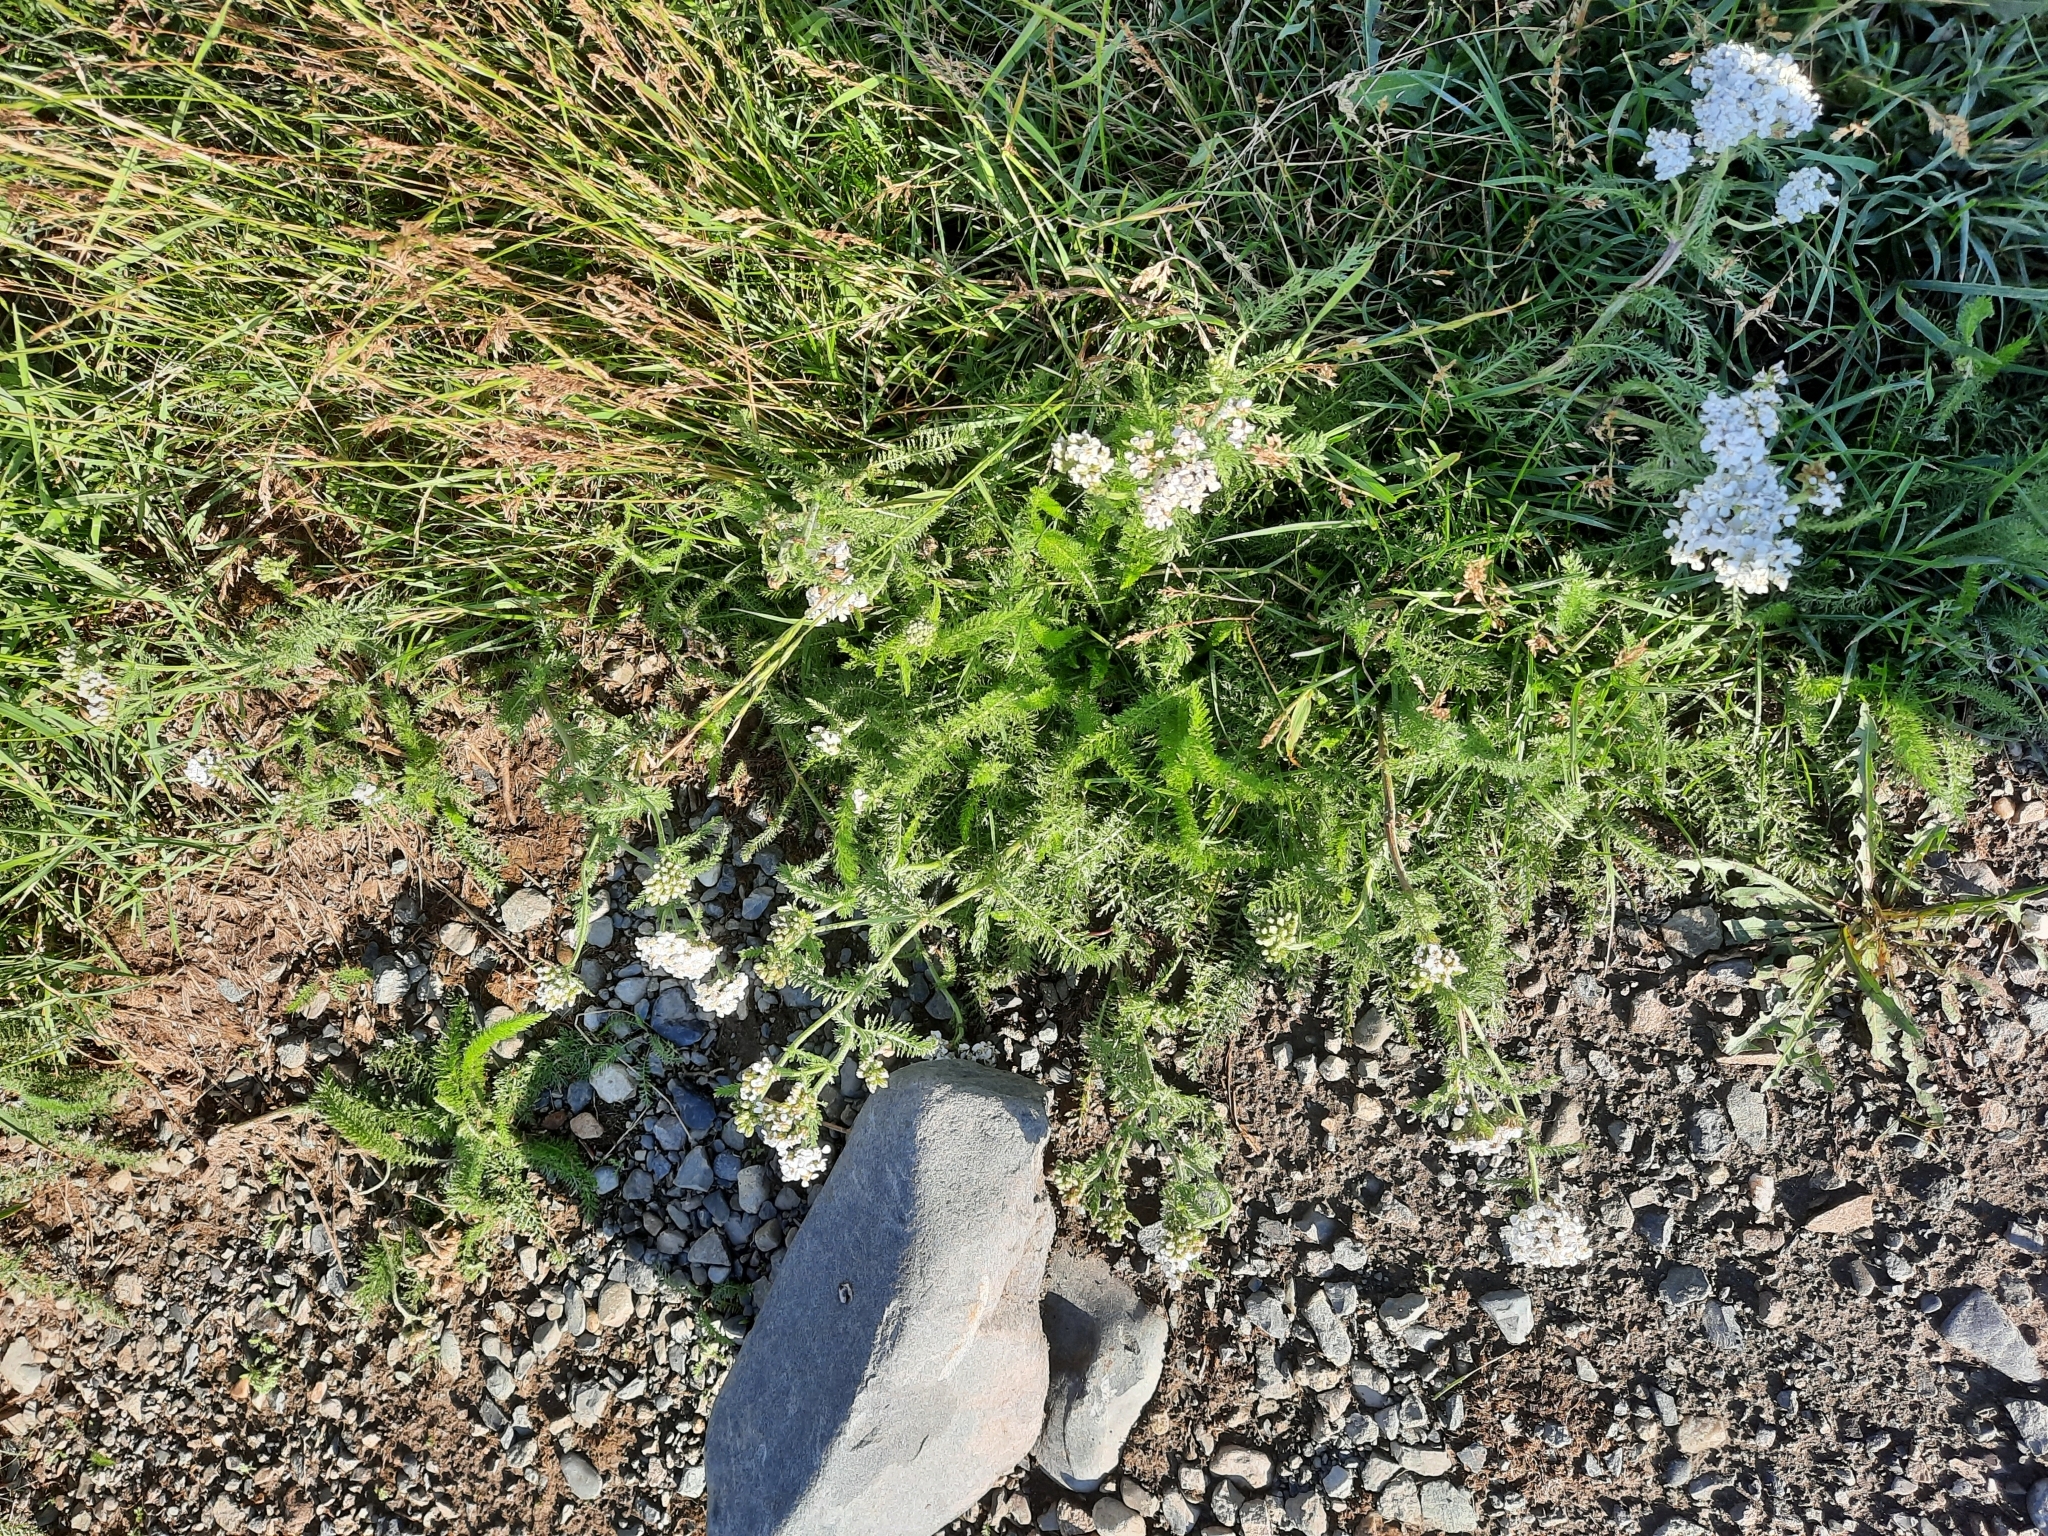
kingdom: Plantae
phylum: Tracheophyta
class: Magnoliopsida
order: Asterales
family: Asteraceae
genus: Achillea
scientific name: Achillea millefolium
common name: Yarrow
